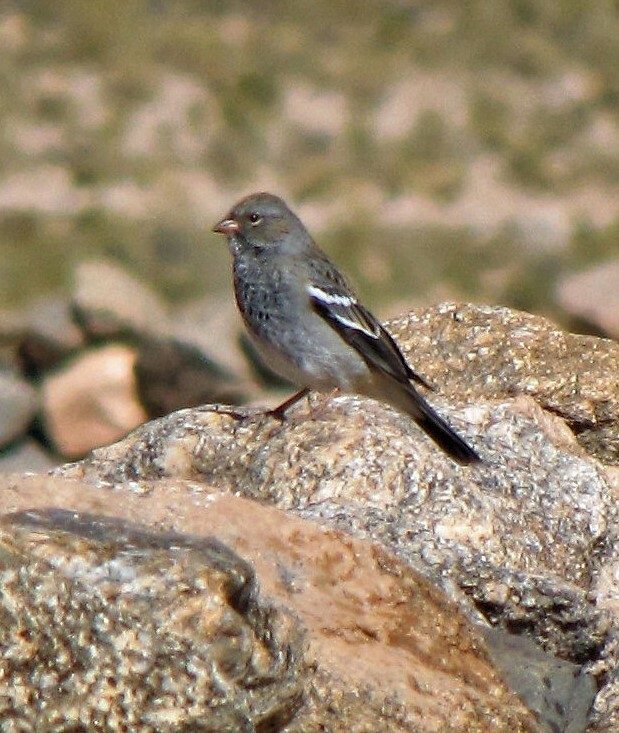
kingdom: Animalia
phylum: Chordata
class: Aves
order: Passeriformes
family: Thraupidae
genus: Rhopospina
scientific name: Rhopospina fruticeti
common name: Mourning sierra finch
